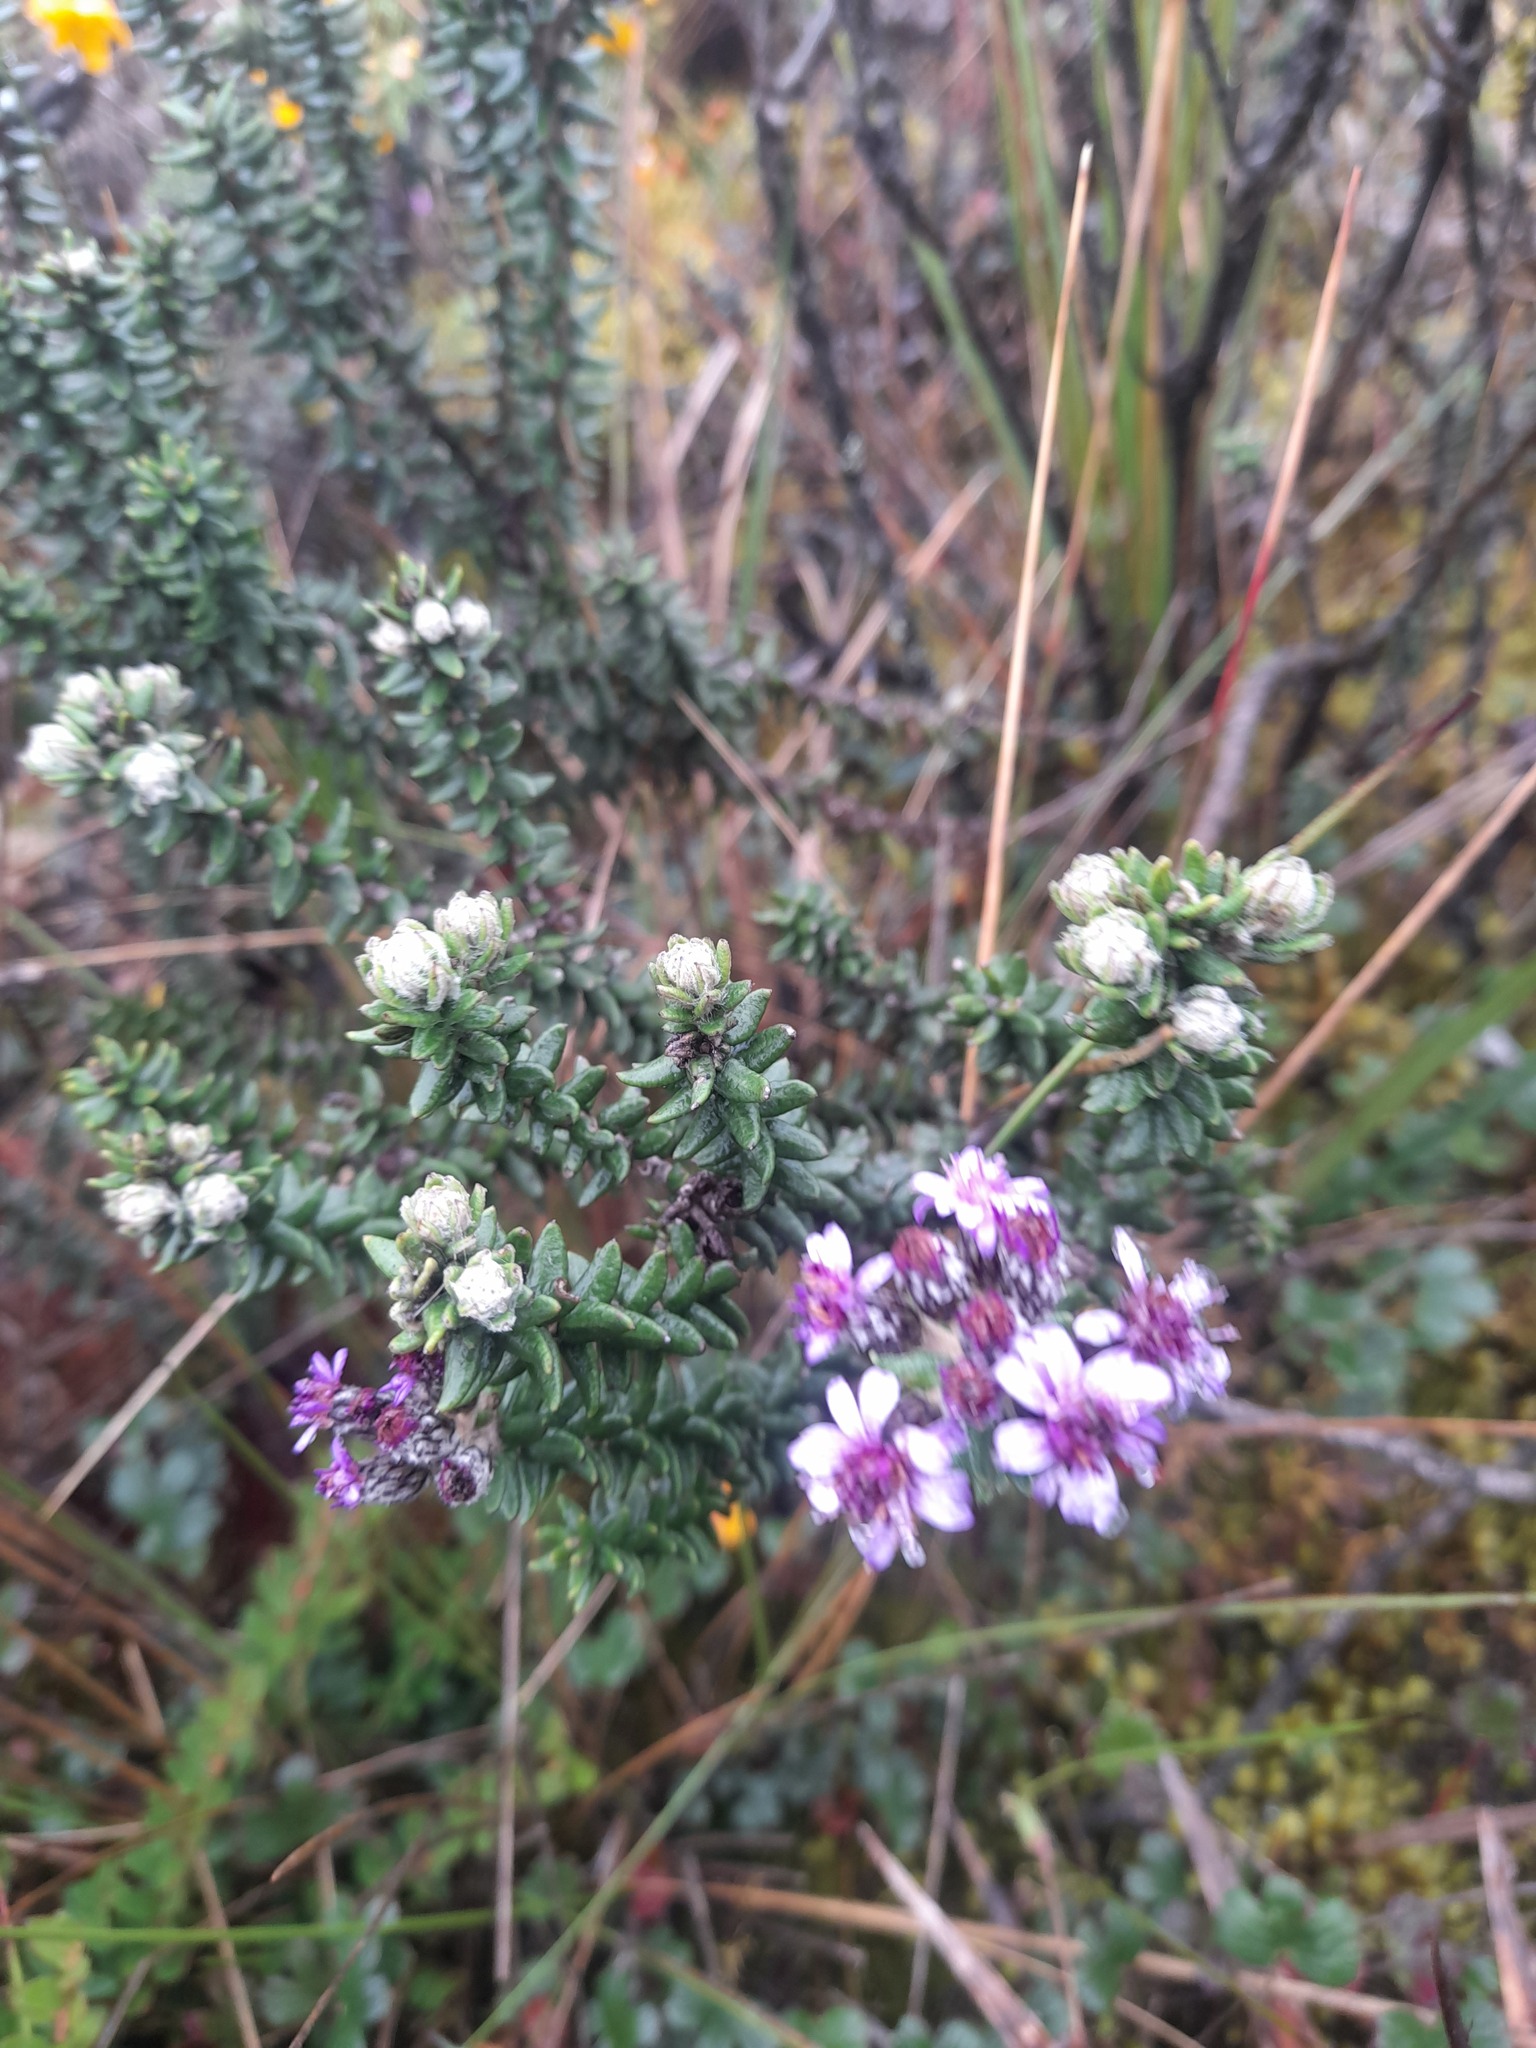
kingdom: Plantae
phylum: Tracheophyta
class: Magnoliopsida
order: Asterales
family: Asteraceae
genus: Linochilus
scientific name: Linochilus phylicoides
